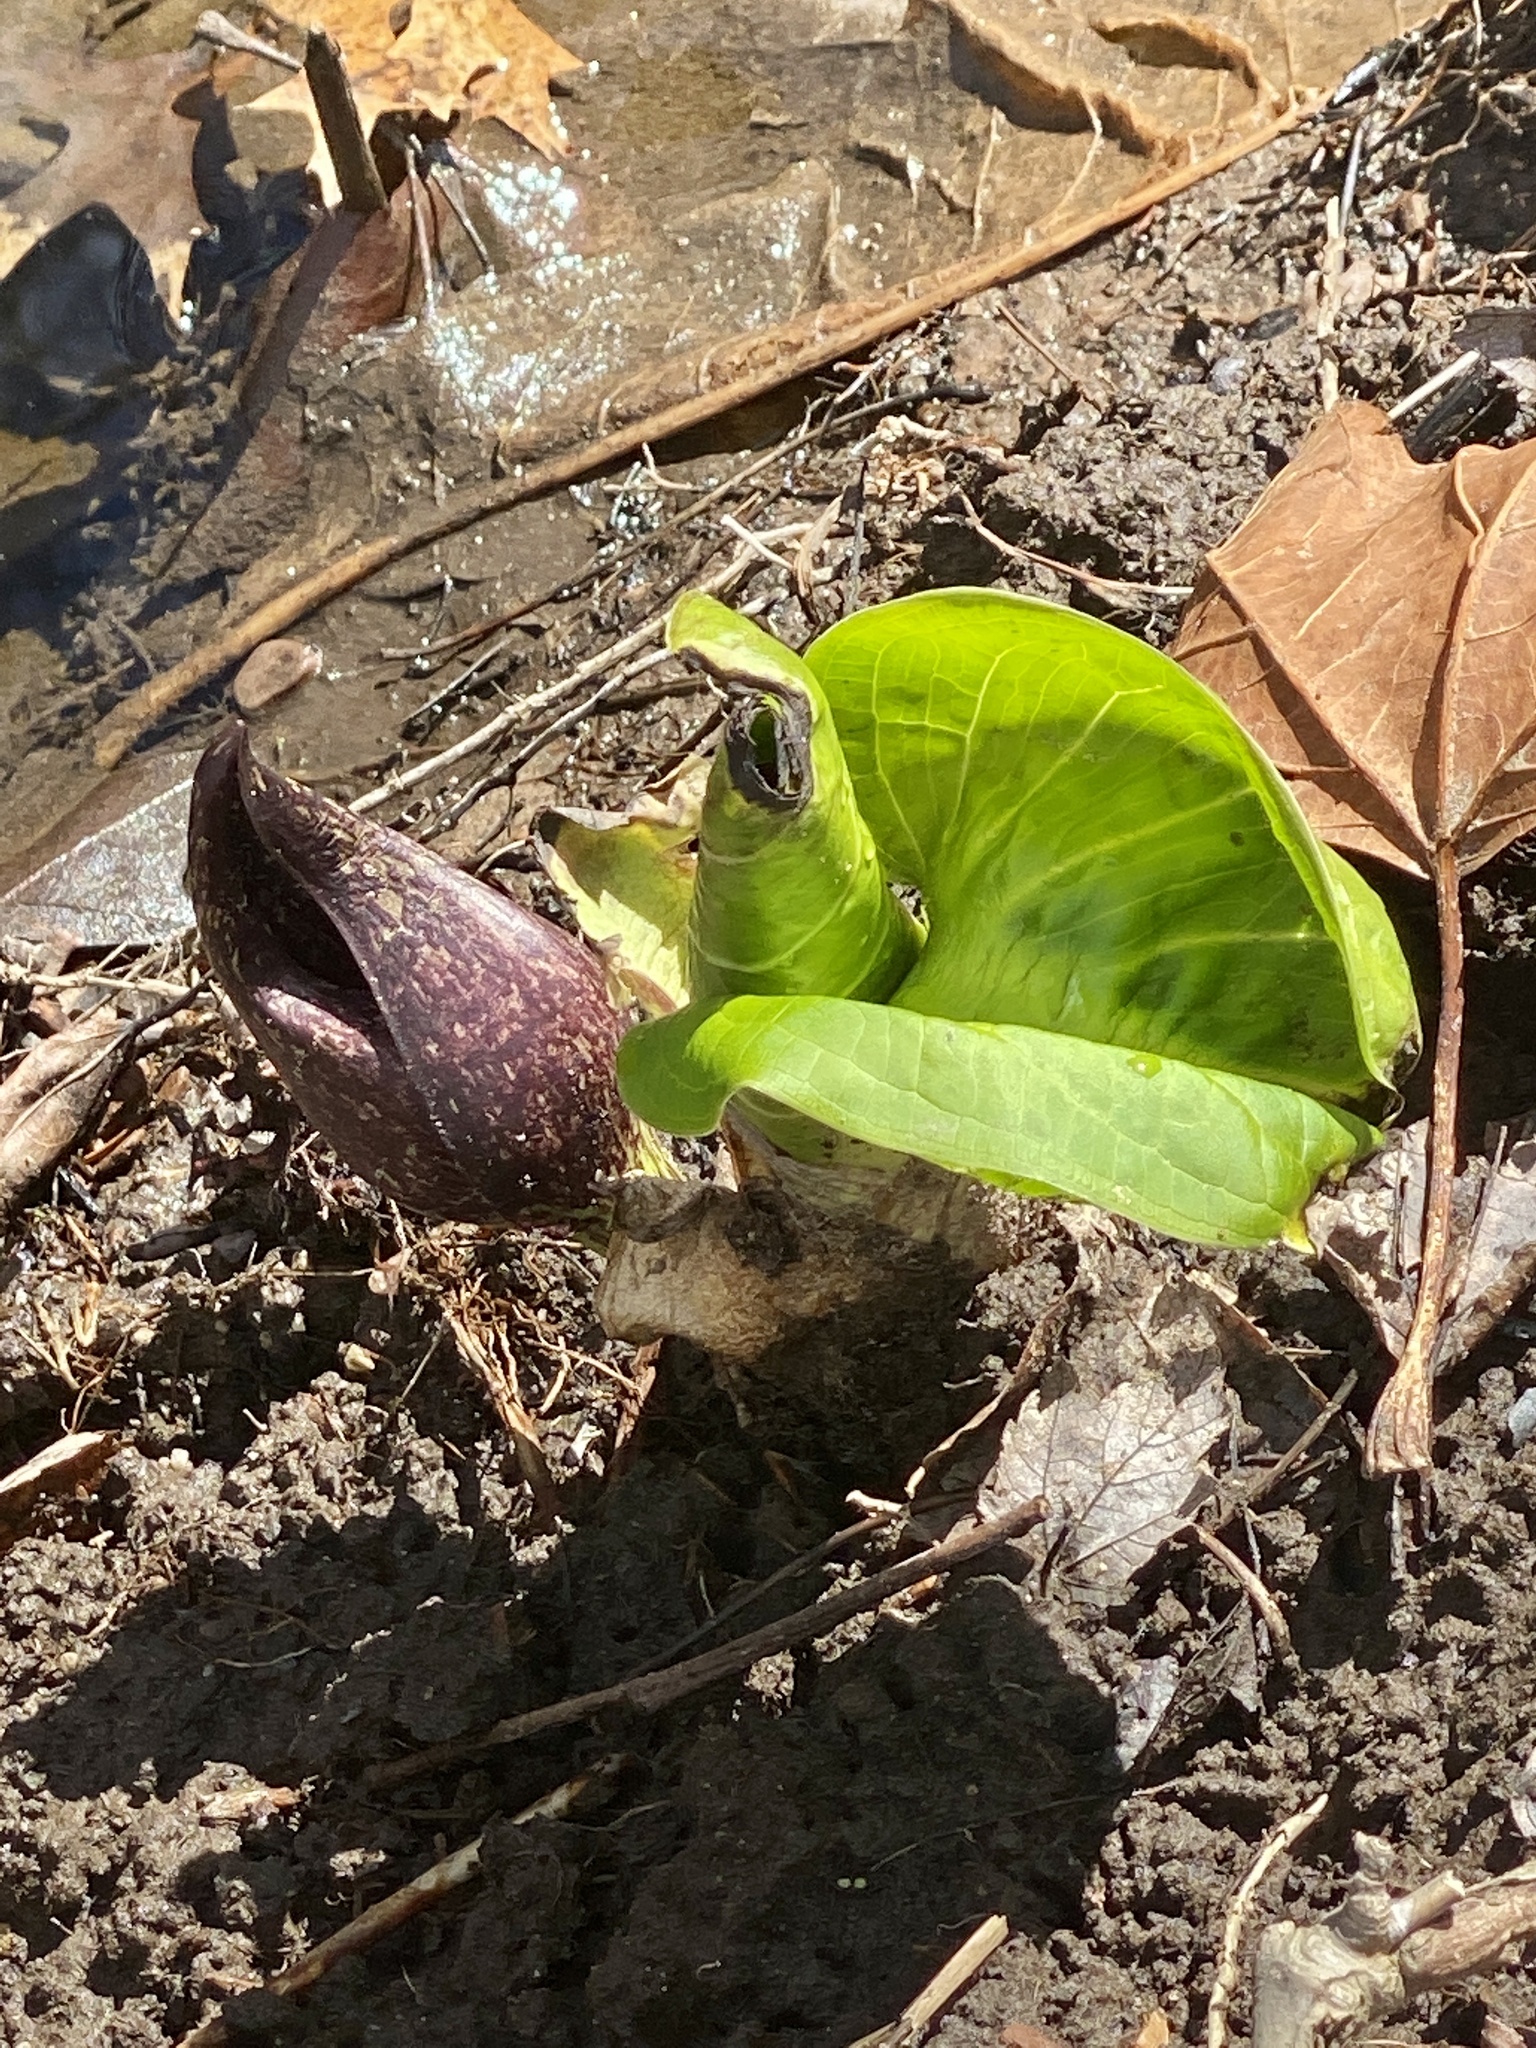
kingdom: Plantae
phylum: Tracheophyta
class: Liliopsida
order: Alismatales
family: Araceae
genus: Symplocarpus
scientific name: Symplocarpus foetidus
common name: Eastern skunk cabbage
